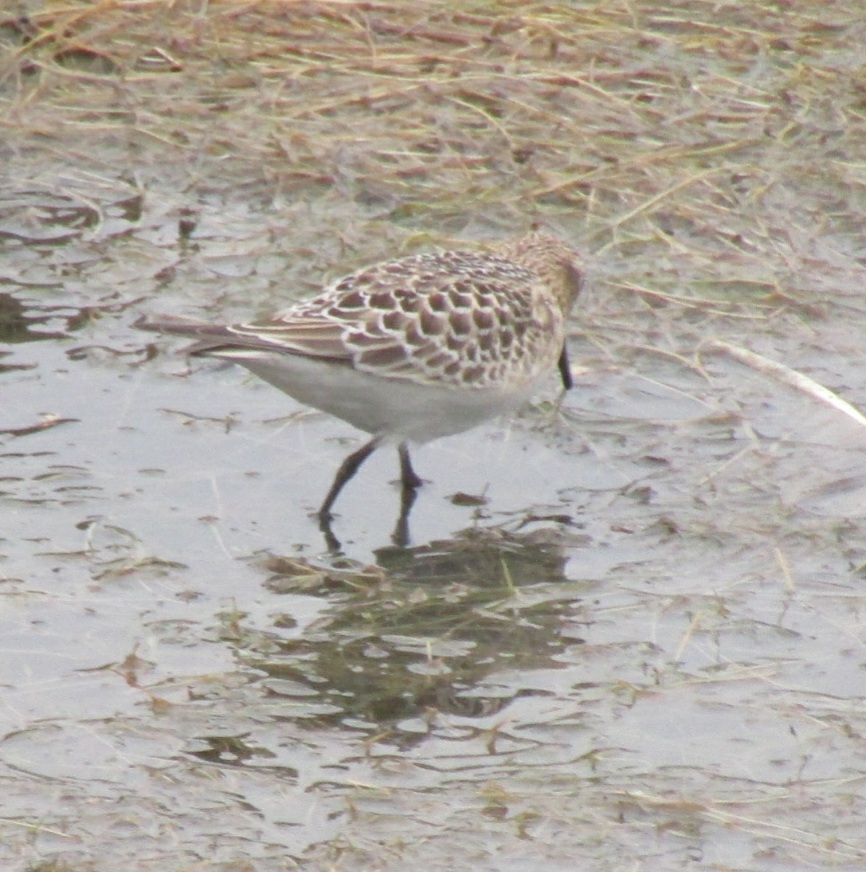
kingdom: Animalia
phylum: Chordata
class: Aves
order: Charadriiformes
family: Scolopacidae
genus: Calidris
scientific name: Calidris bairdii
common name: Baird's sandpiper
